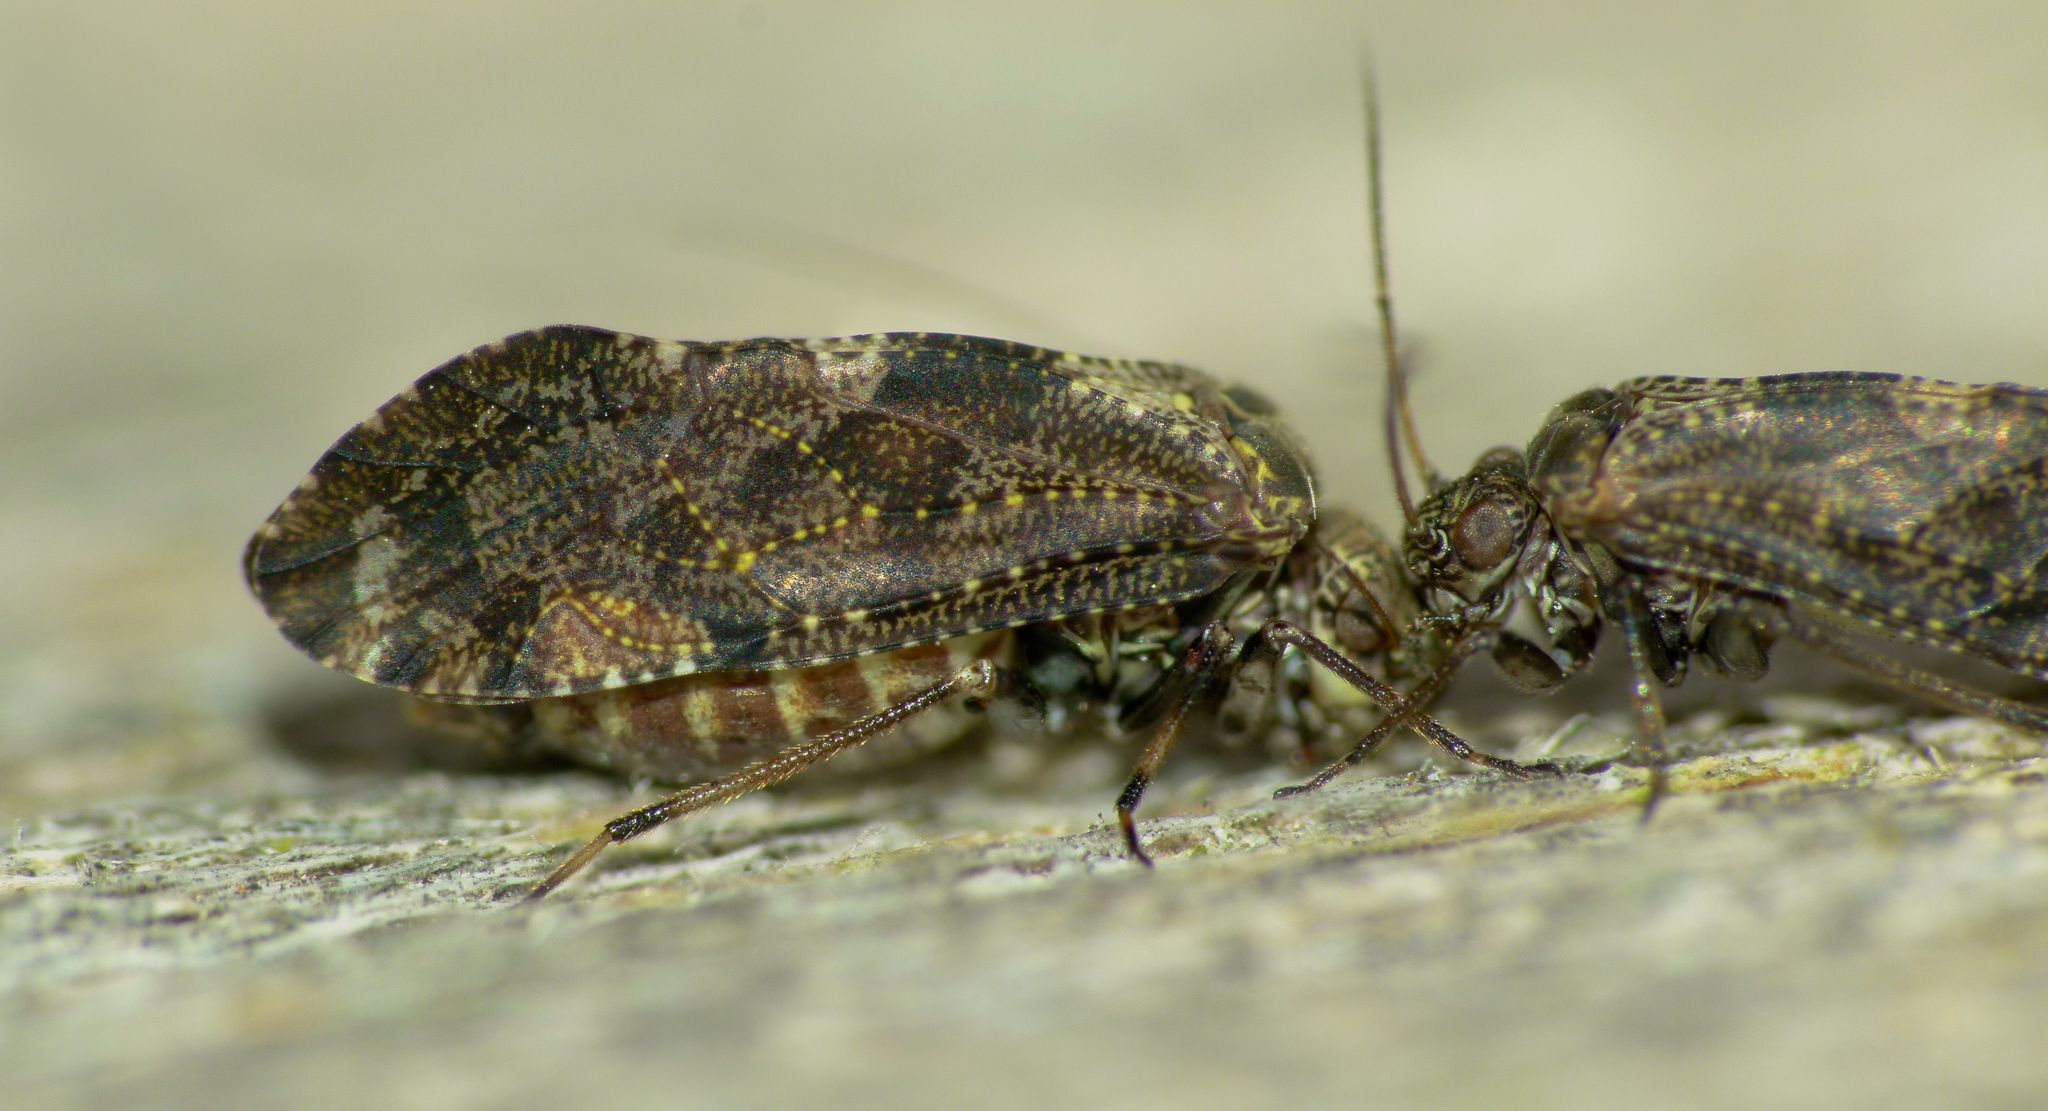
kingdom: Animalia
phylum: Arthropoda
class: Insecta
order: Psocodea
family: Myopsocidae
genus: Nimbopsocus
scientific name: Nimbopsocus australis
